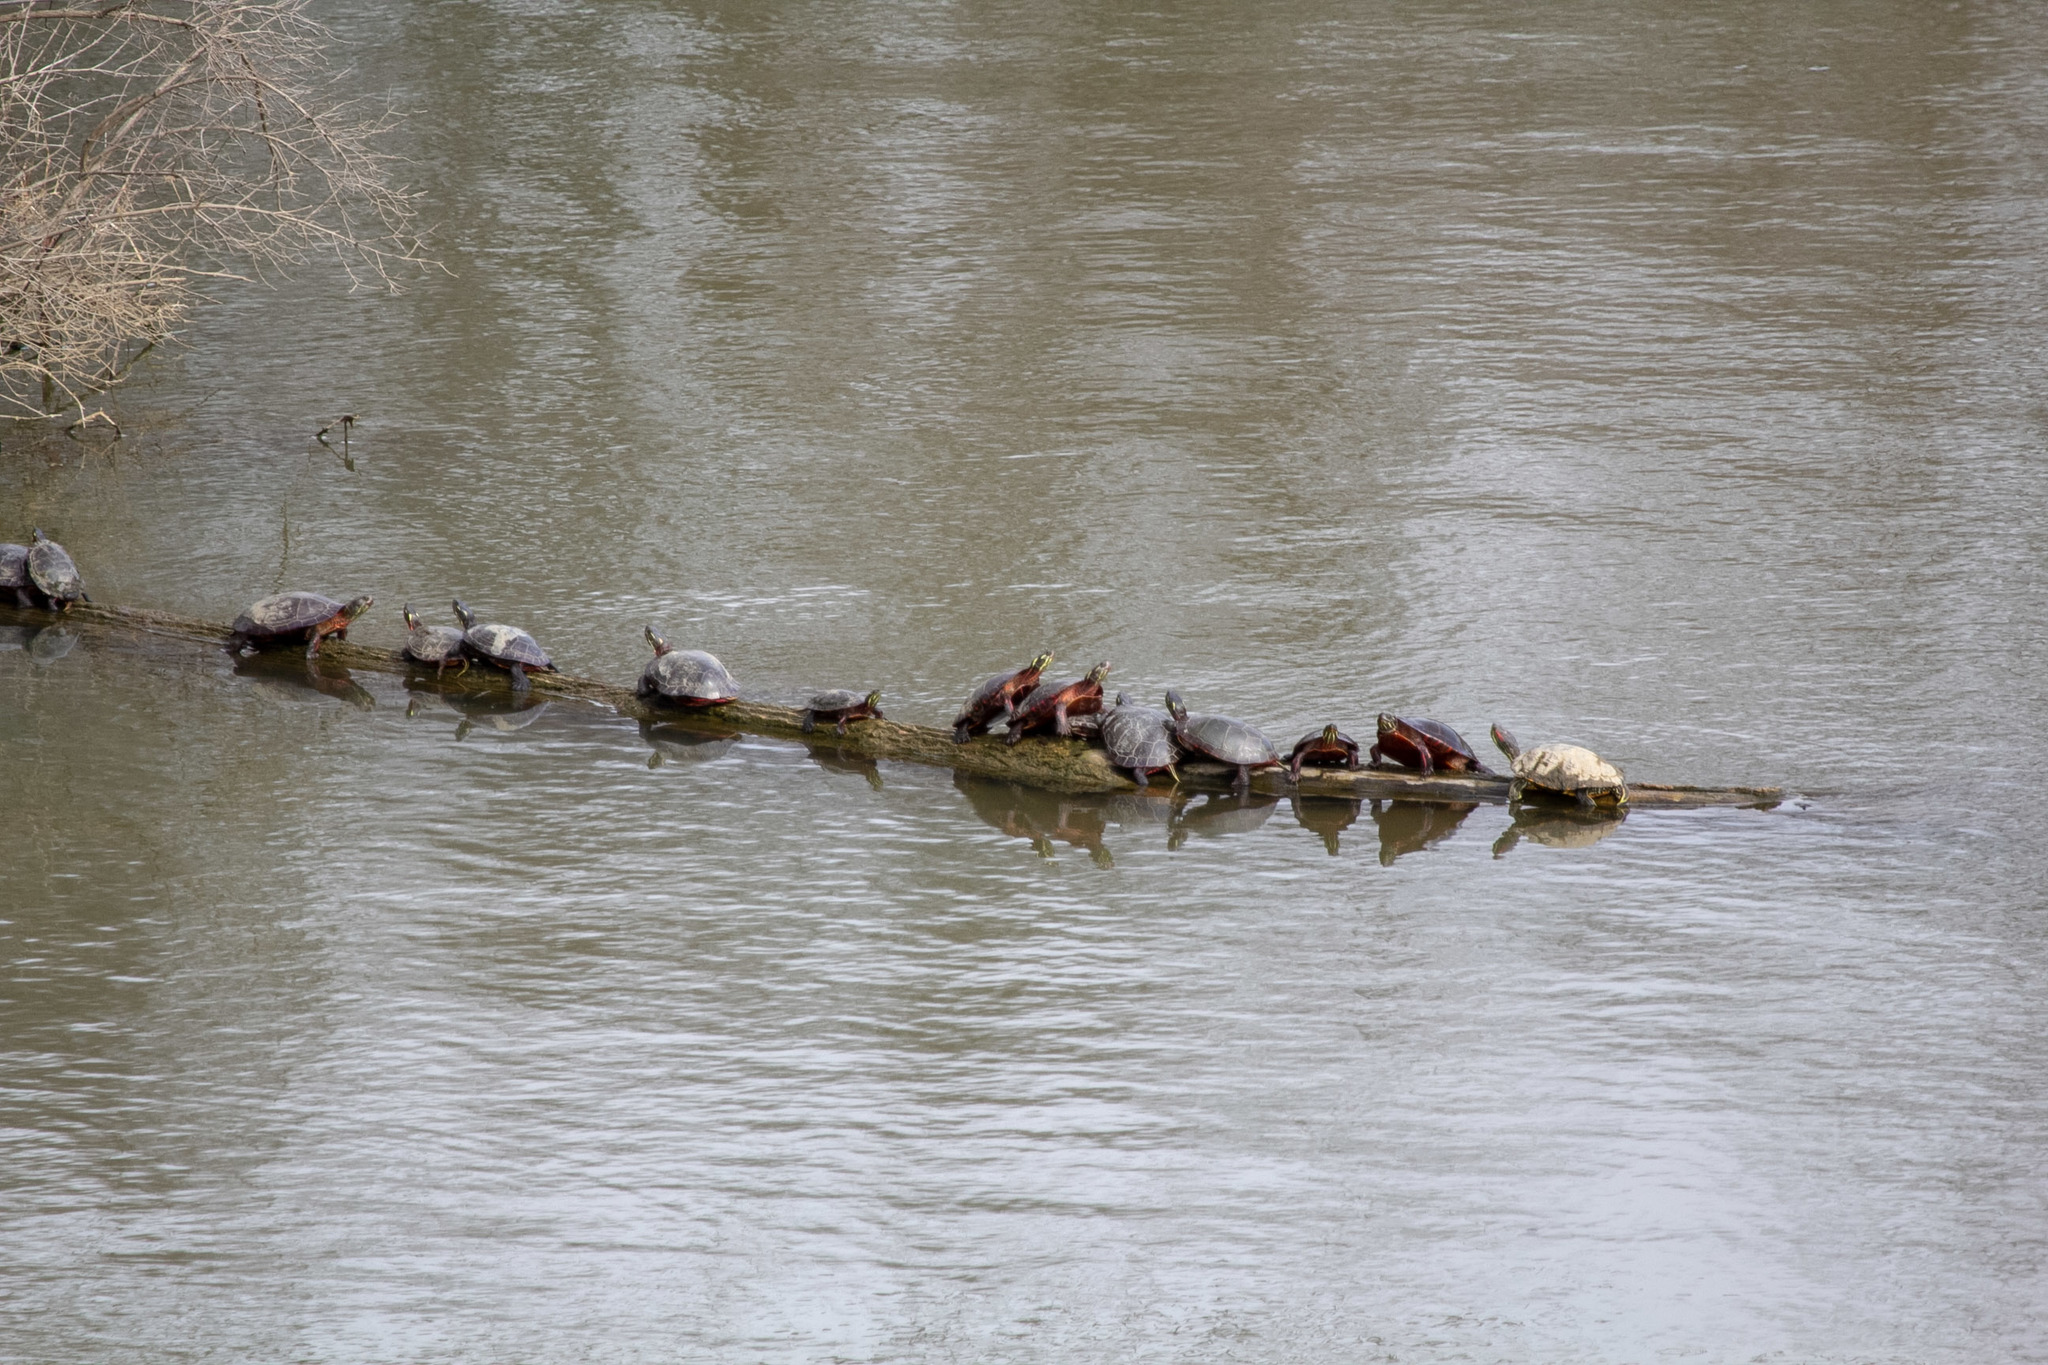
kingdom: Animalia
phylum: Chordata
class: Testudines
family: Emydidae
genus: Chrysemys
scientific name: Chrysemys picta
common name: Painted turtle
